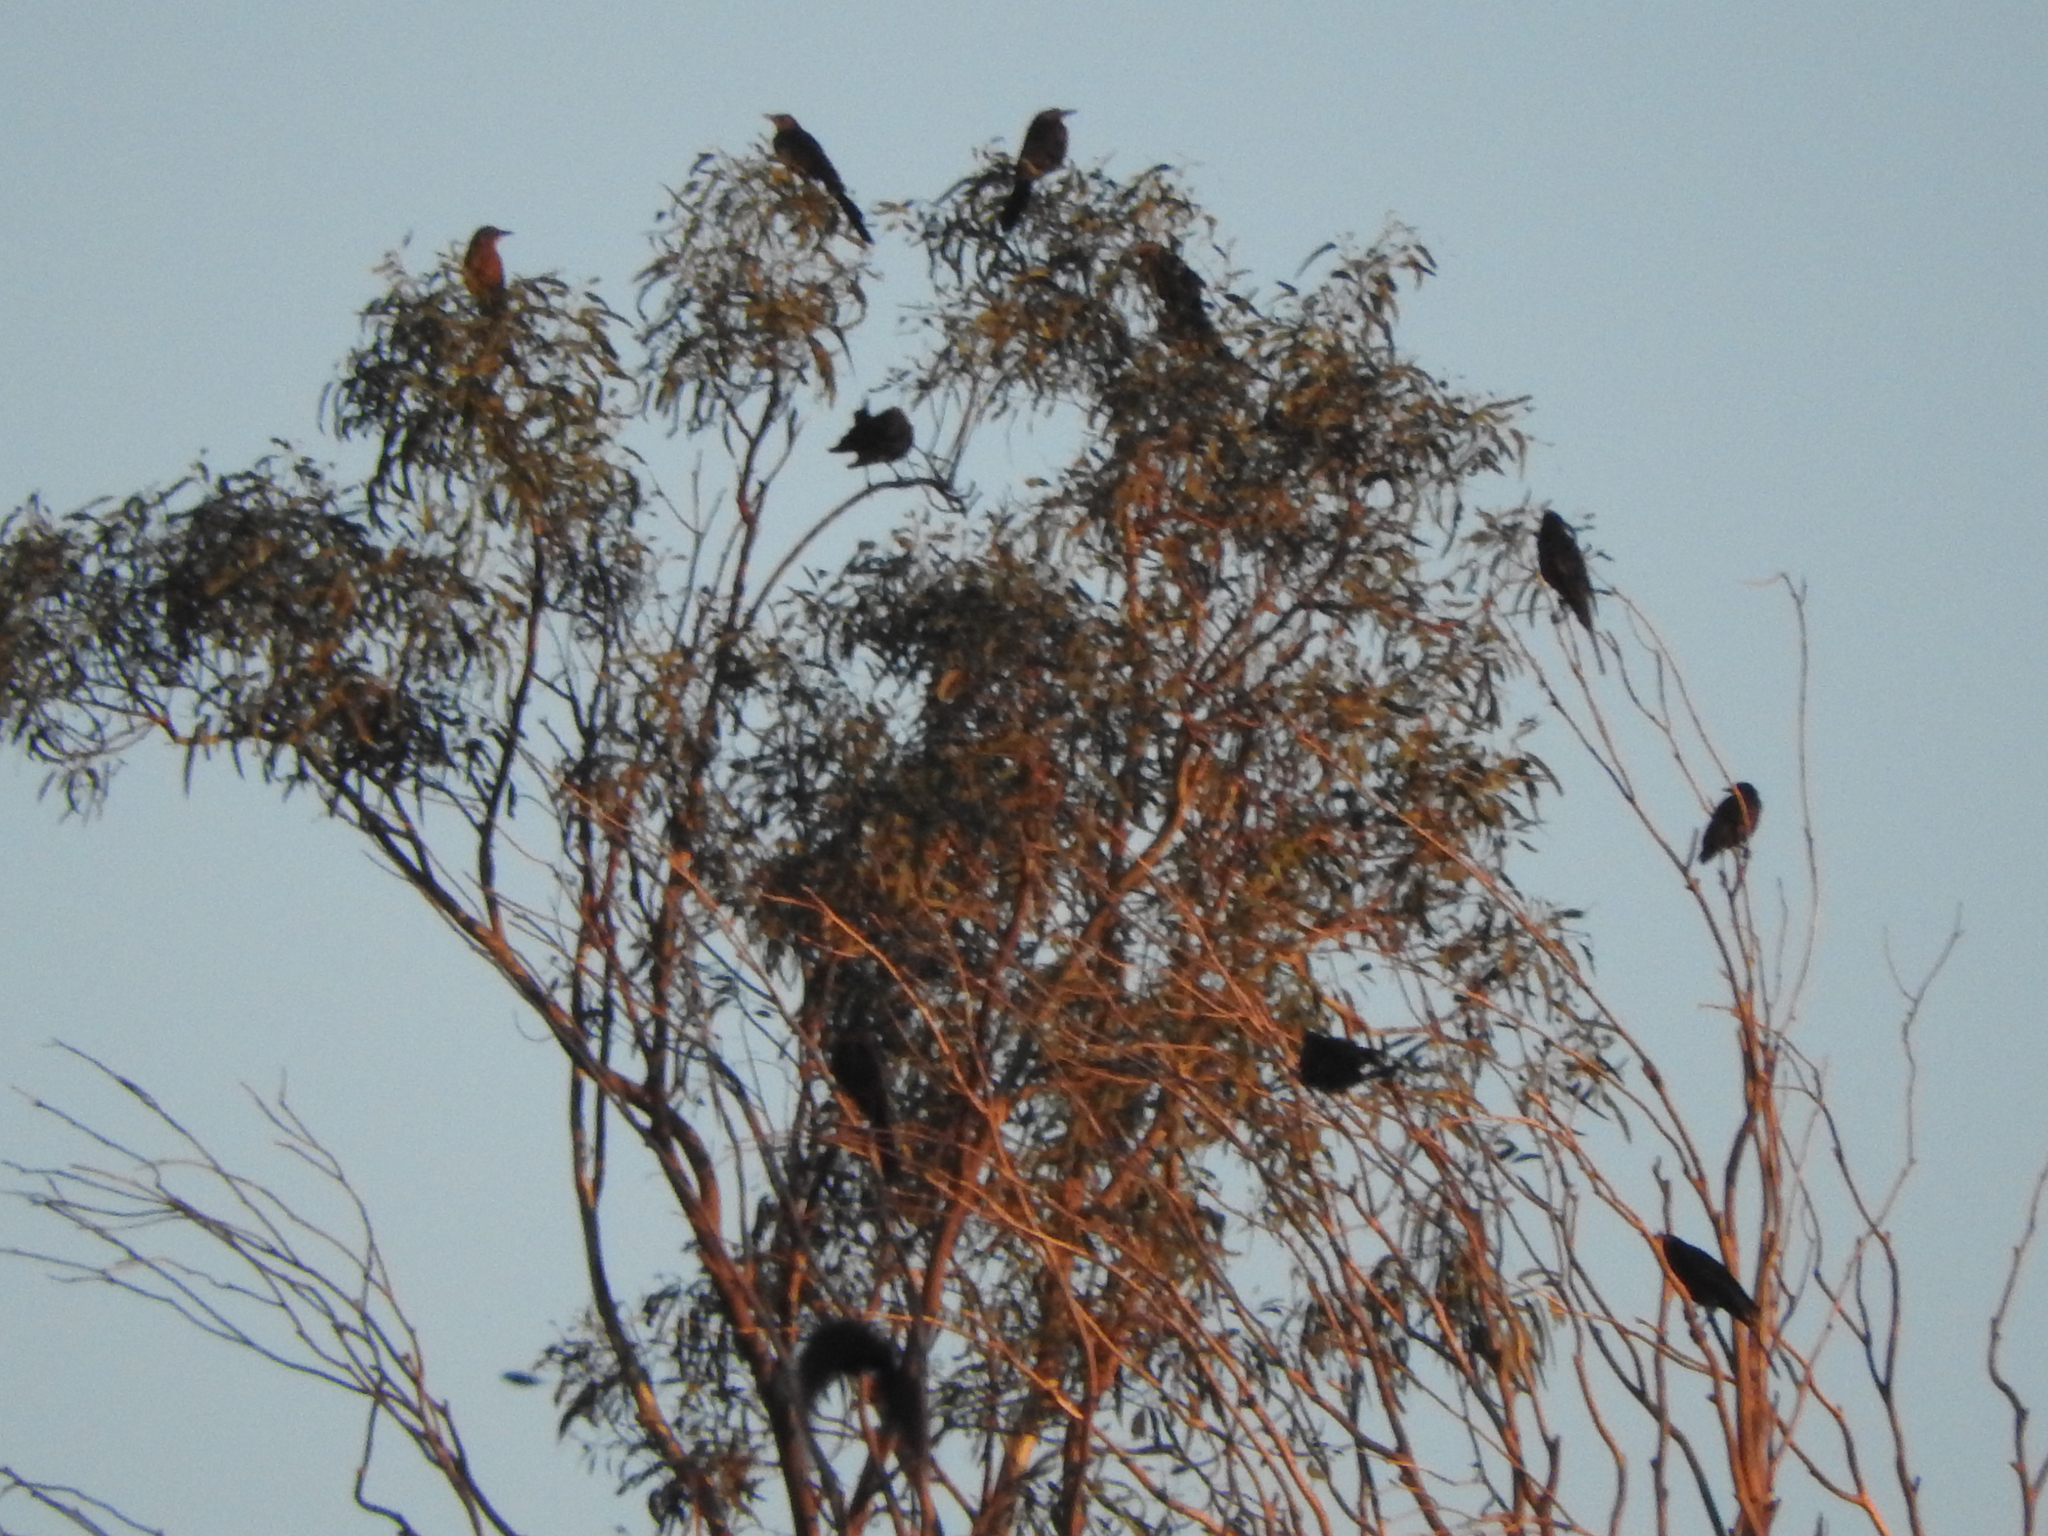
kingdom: Animalia
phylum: Chordata
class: Aves
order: Passeriformes
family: Icteridae
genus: Quiscalus
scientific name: Quiscalus mexicanus
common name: Great-tailed grackle
